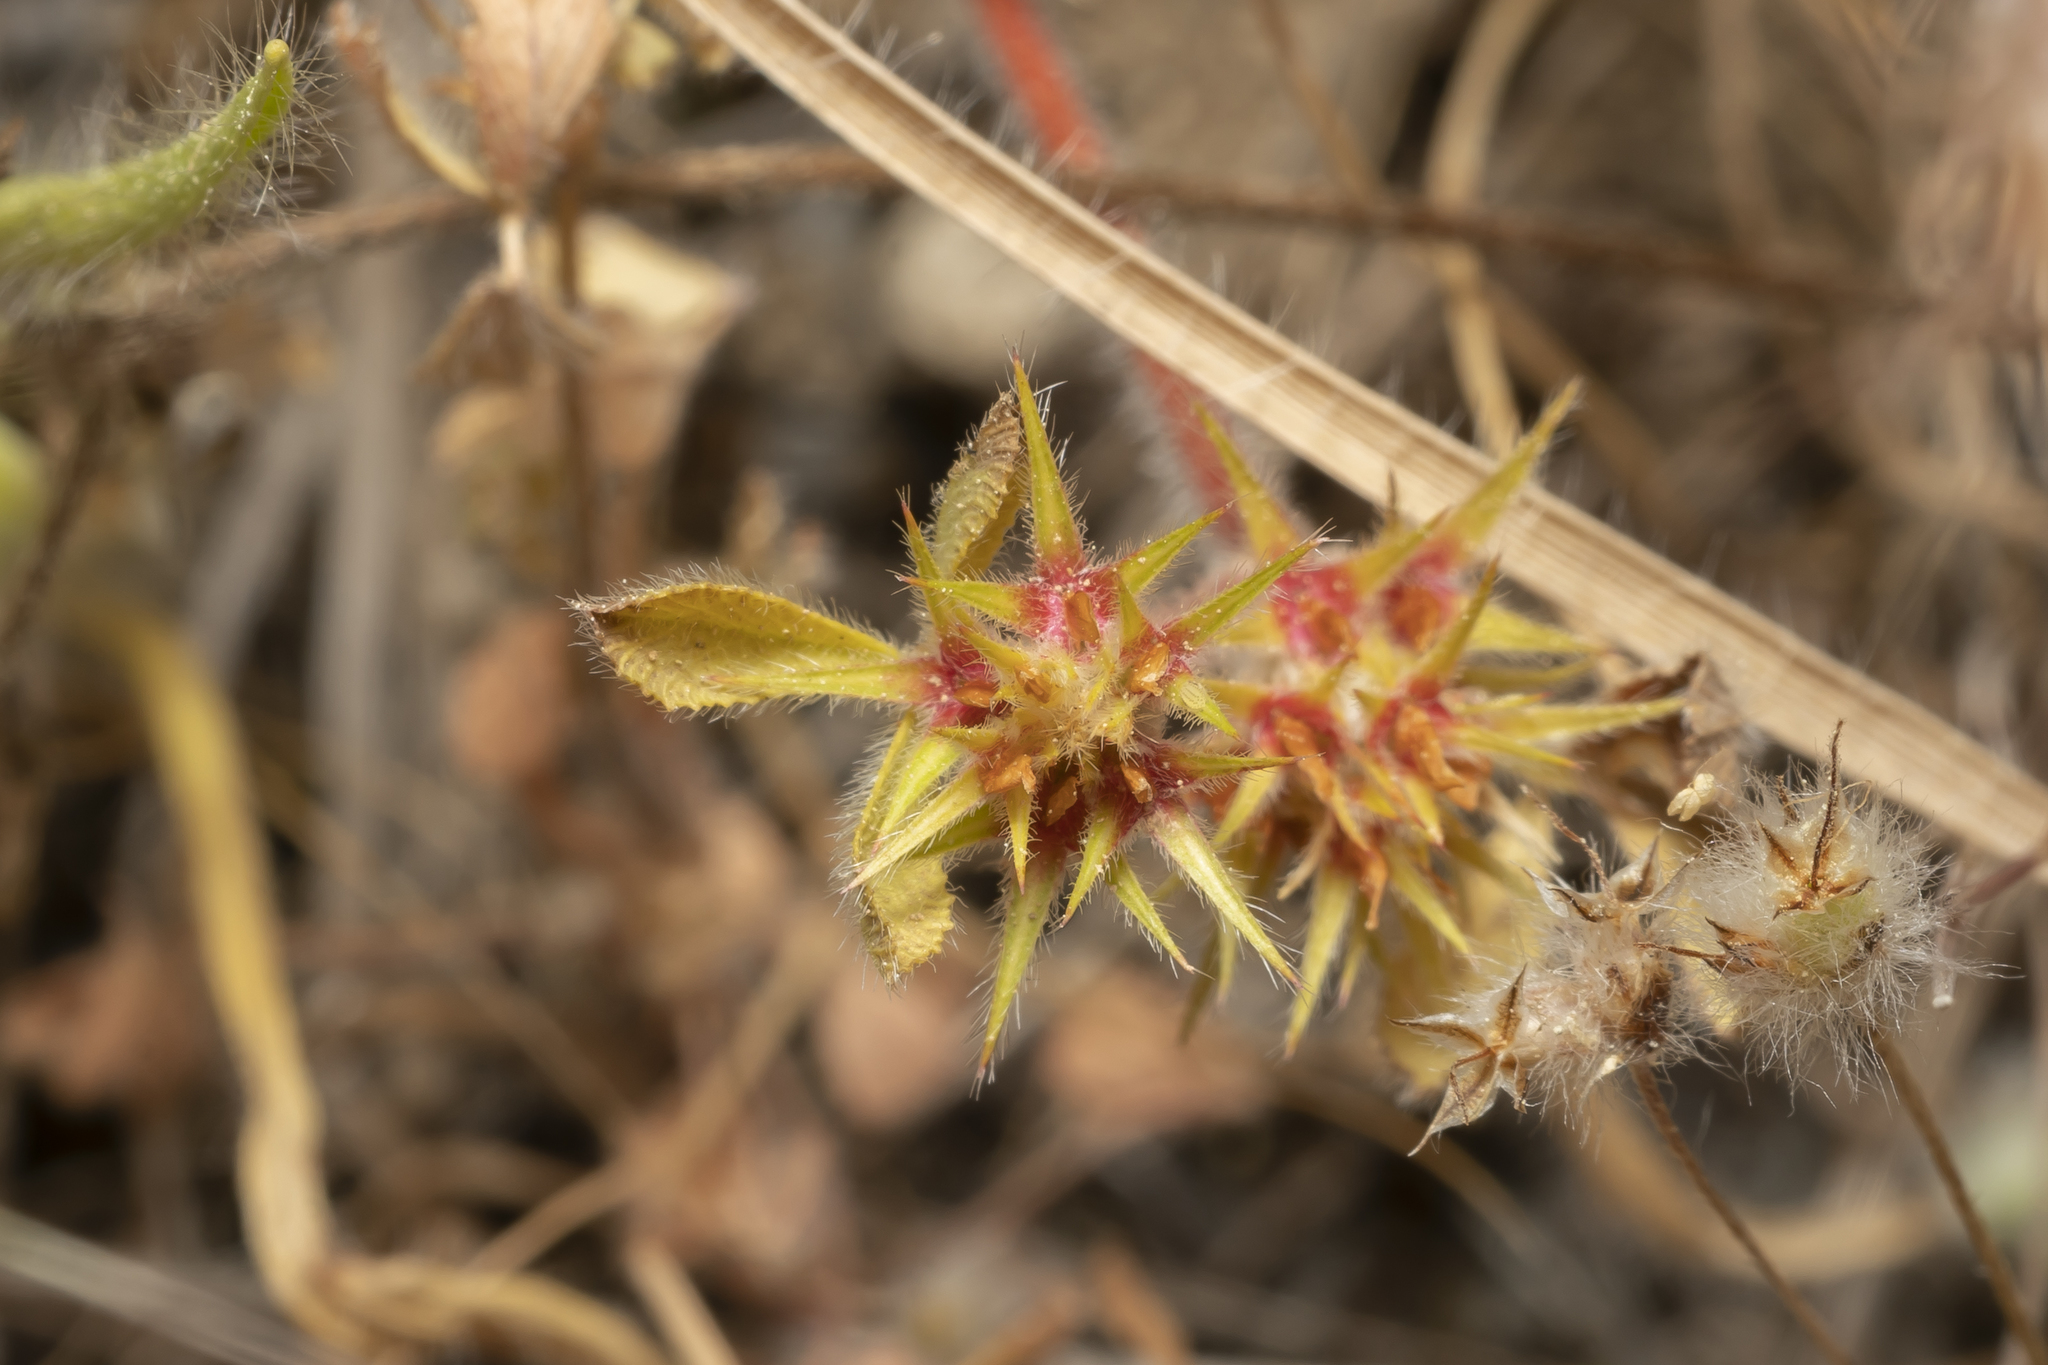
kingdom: Plantae
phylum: Tracheophyta
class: Magnoliopsida
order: Fabales
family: Fabaceae
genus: Trifolium
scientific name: Trifolium scabrum
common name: Rough clover
